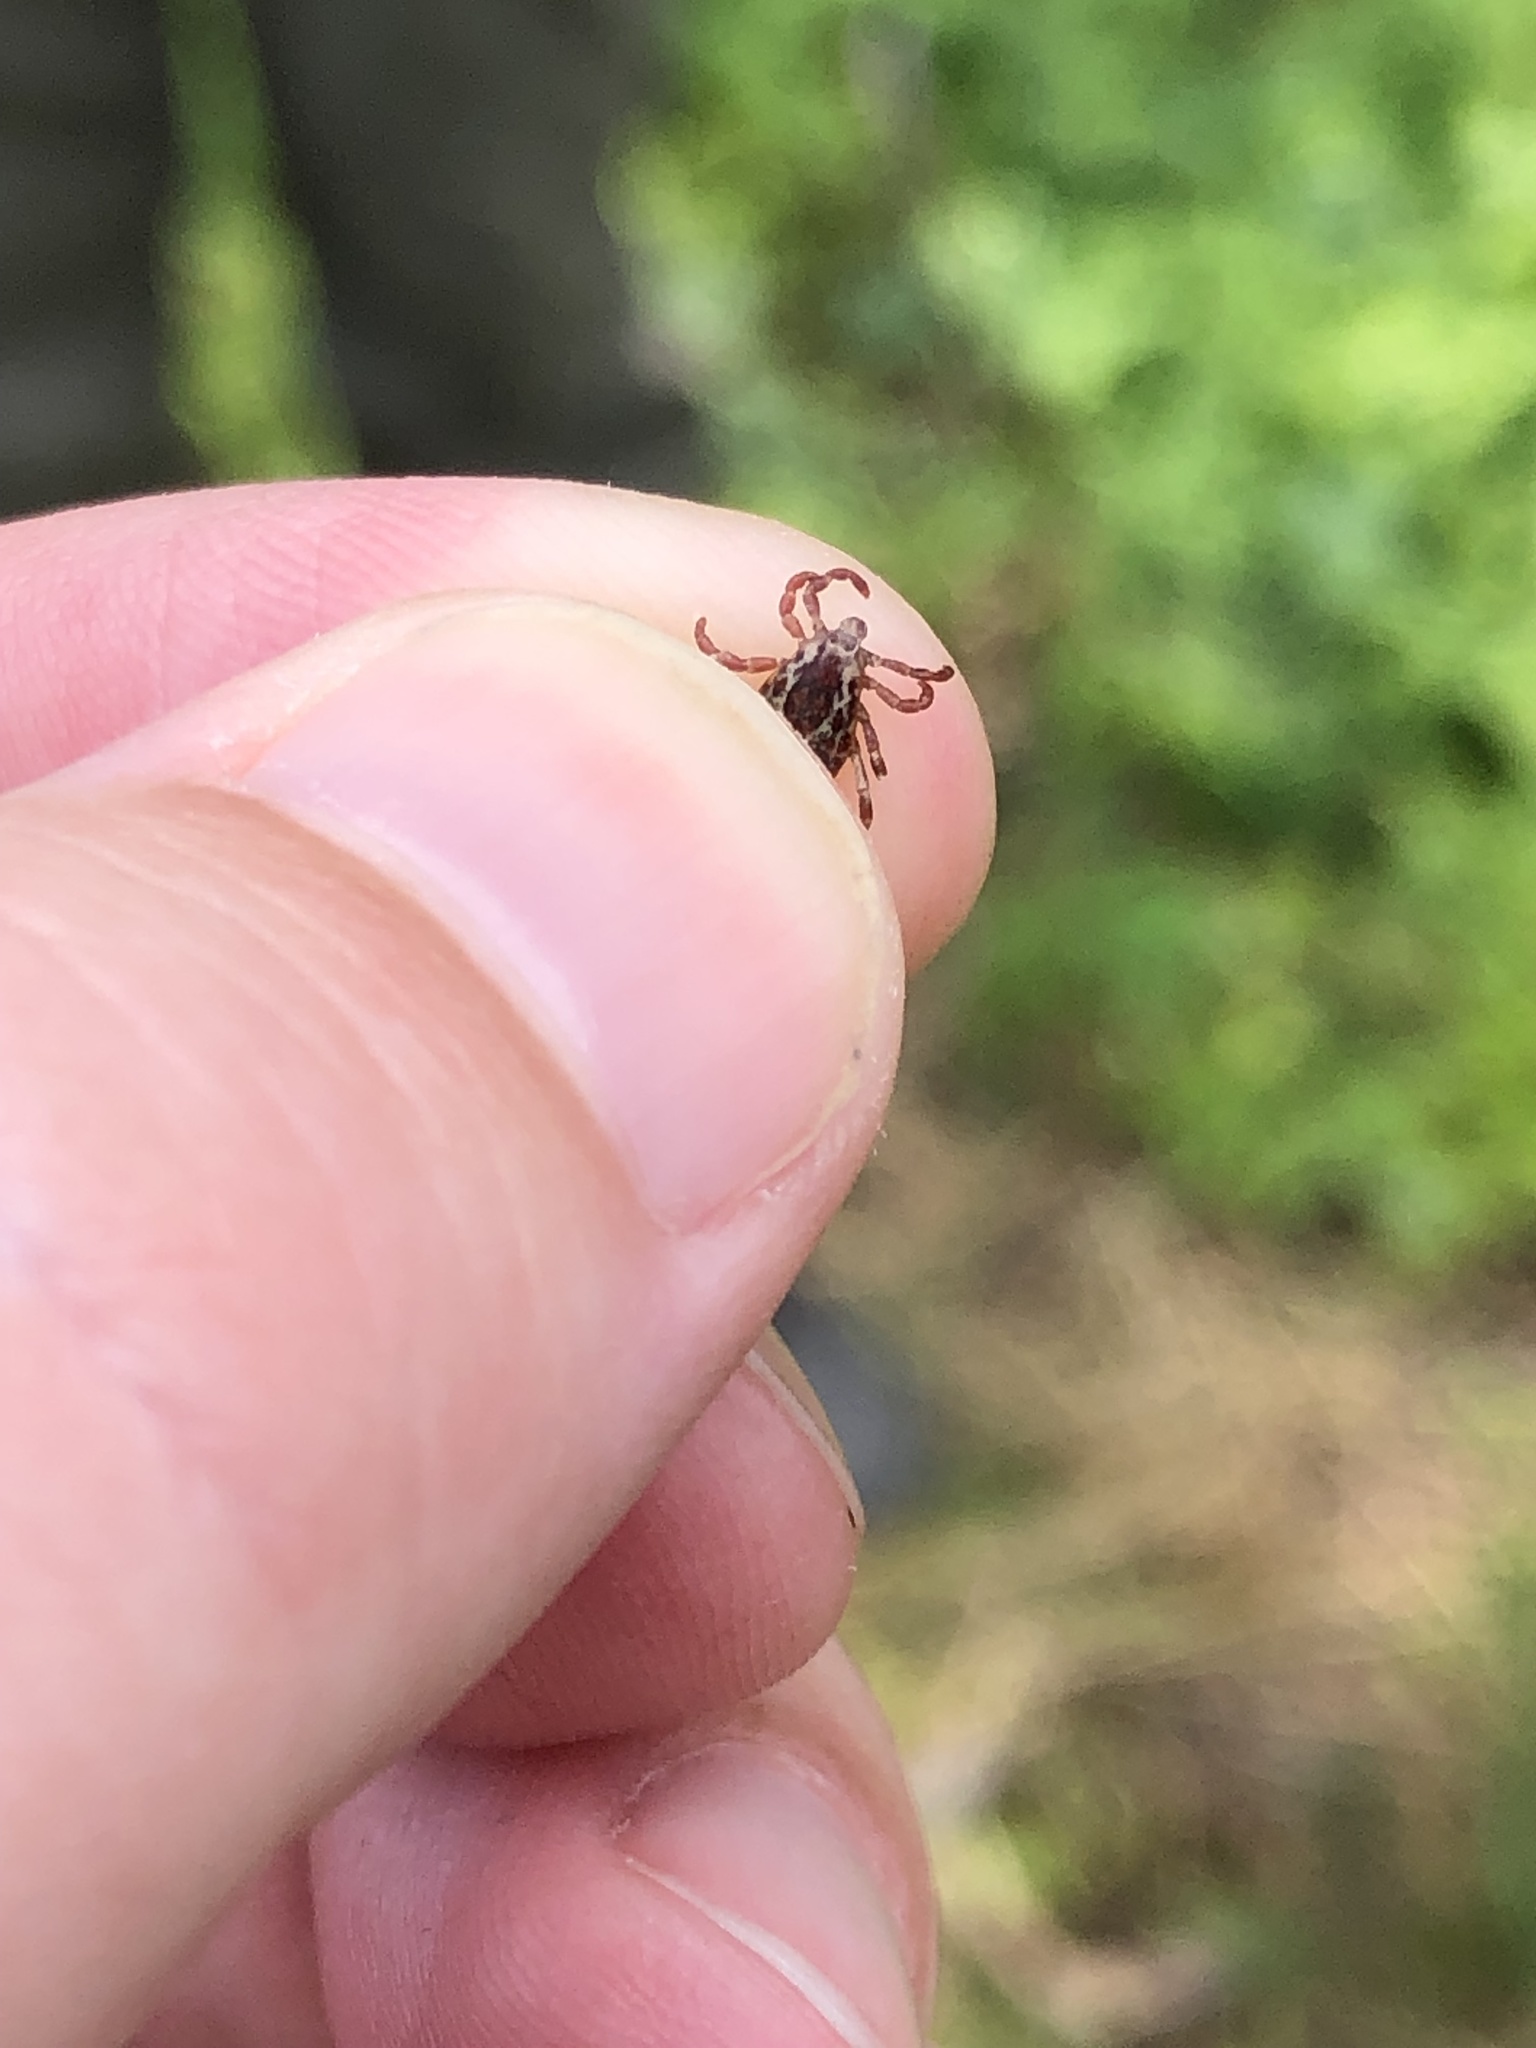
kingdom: Animalia
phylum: Arthropoda
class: Arachnida
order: Ixodida
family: Ixodidae
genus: Dermacentor
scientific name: Dermacentor variabilis
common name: American dog tick
